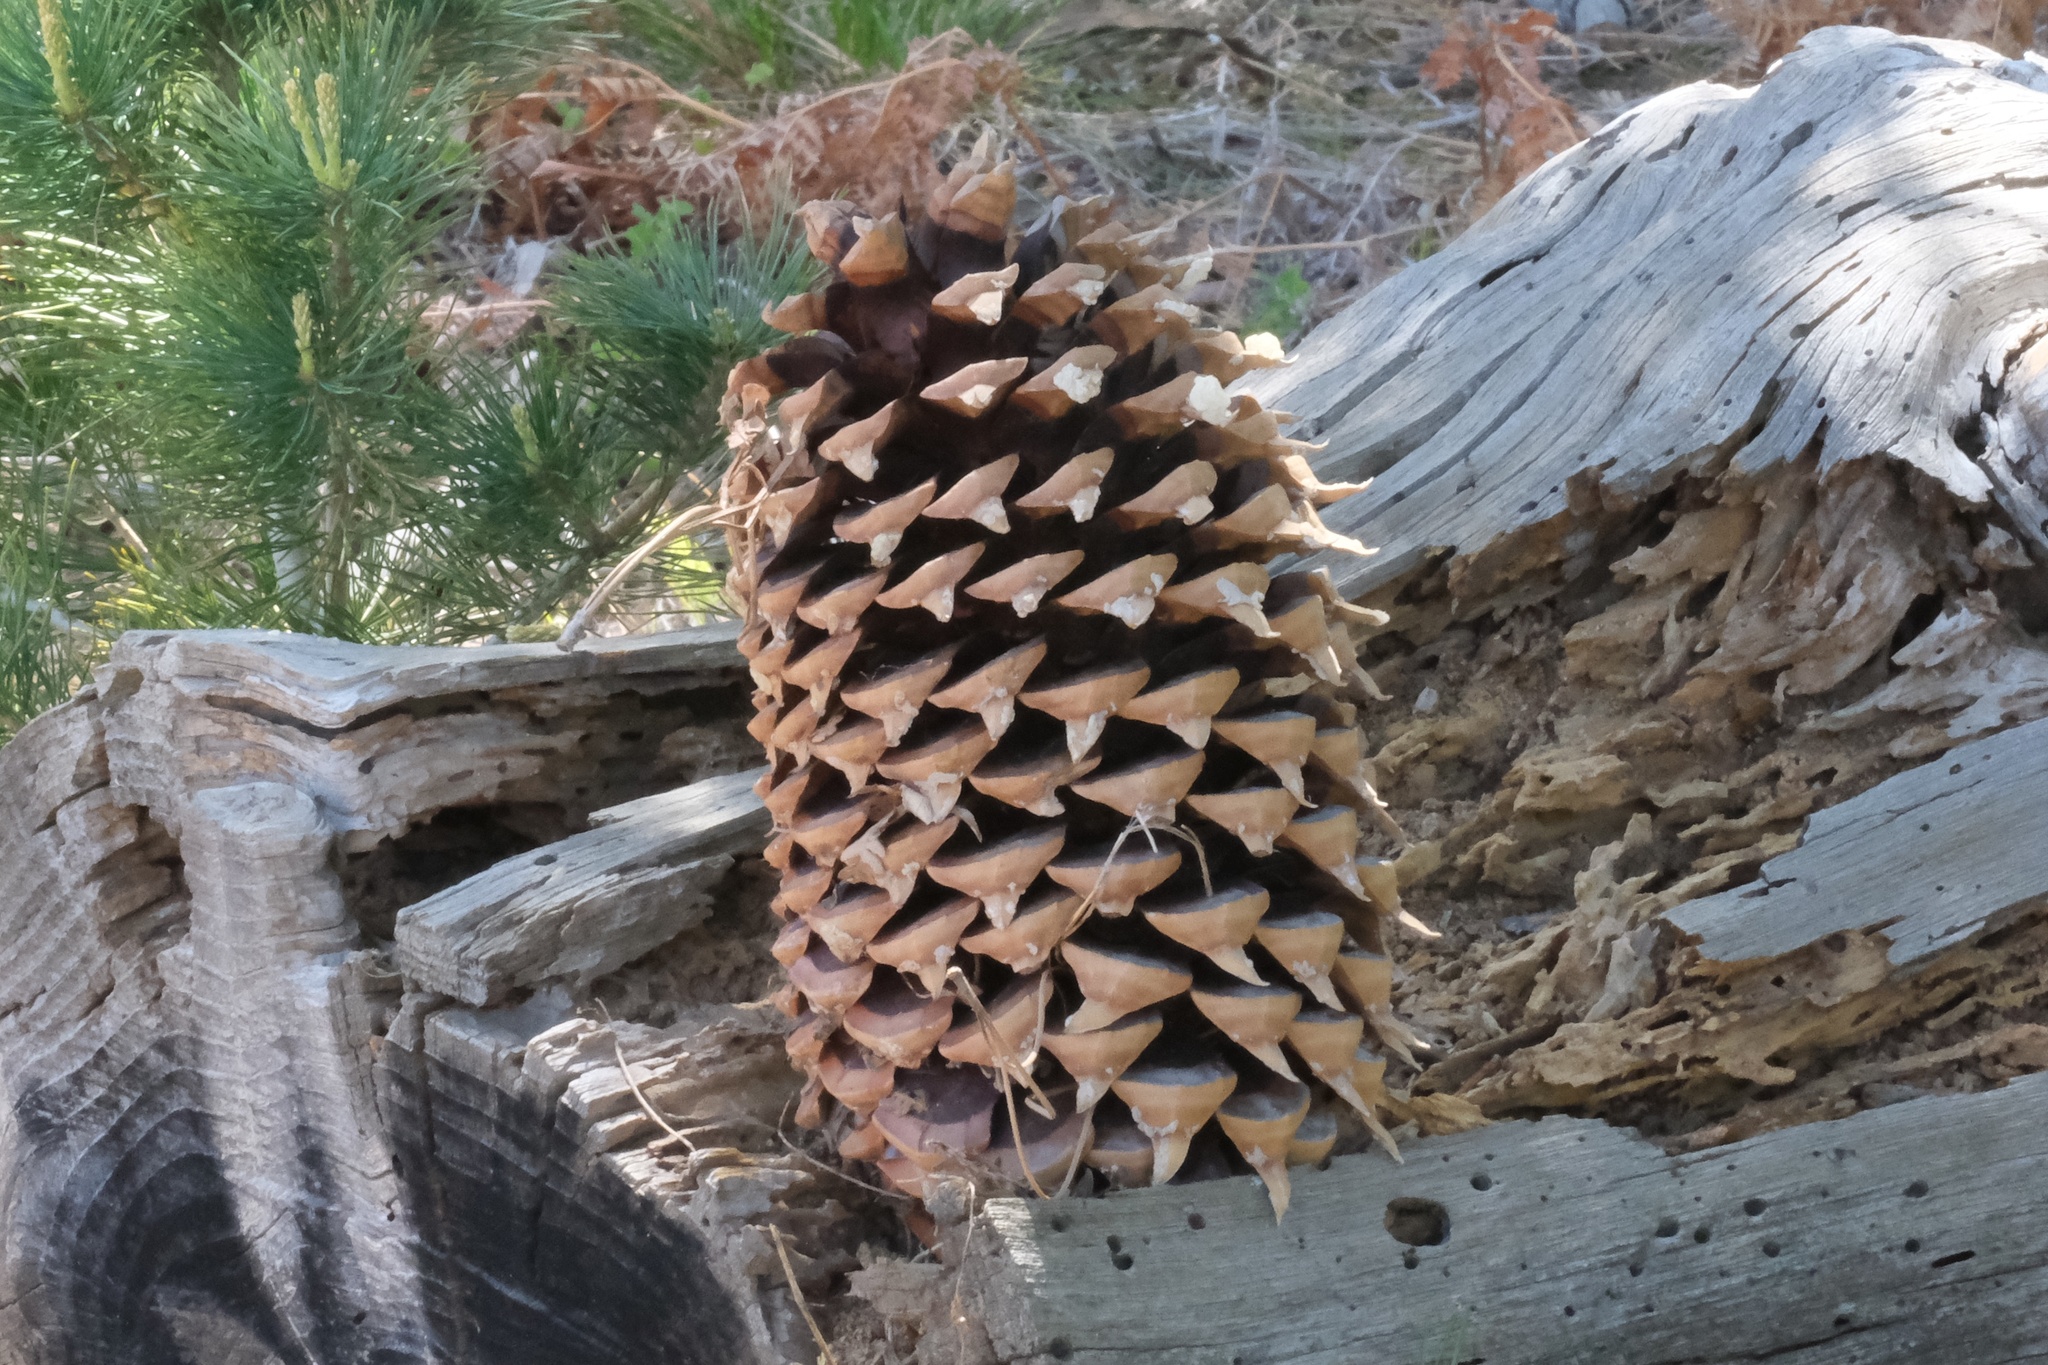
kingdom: Plantae
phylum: Tracheophyta
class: Pinopsida
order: Pinales
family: Pinaceae
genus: Pinus
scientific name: Pinus coulteri
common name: Coulter pine
